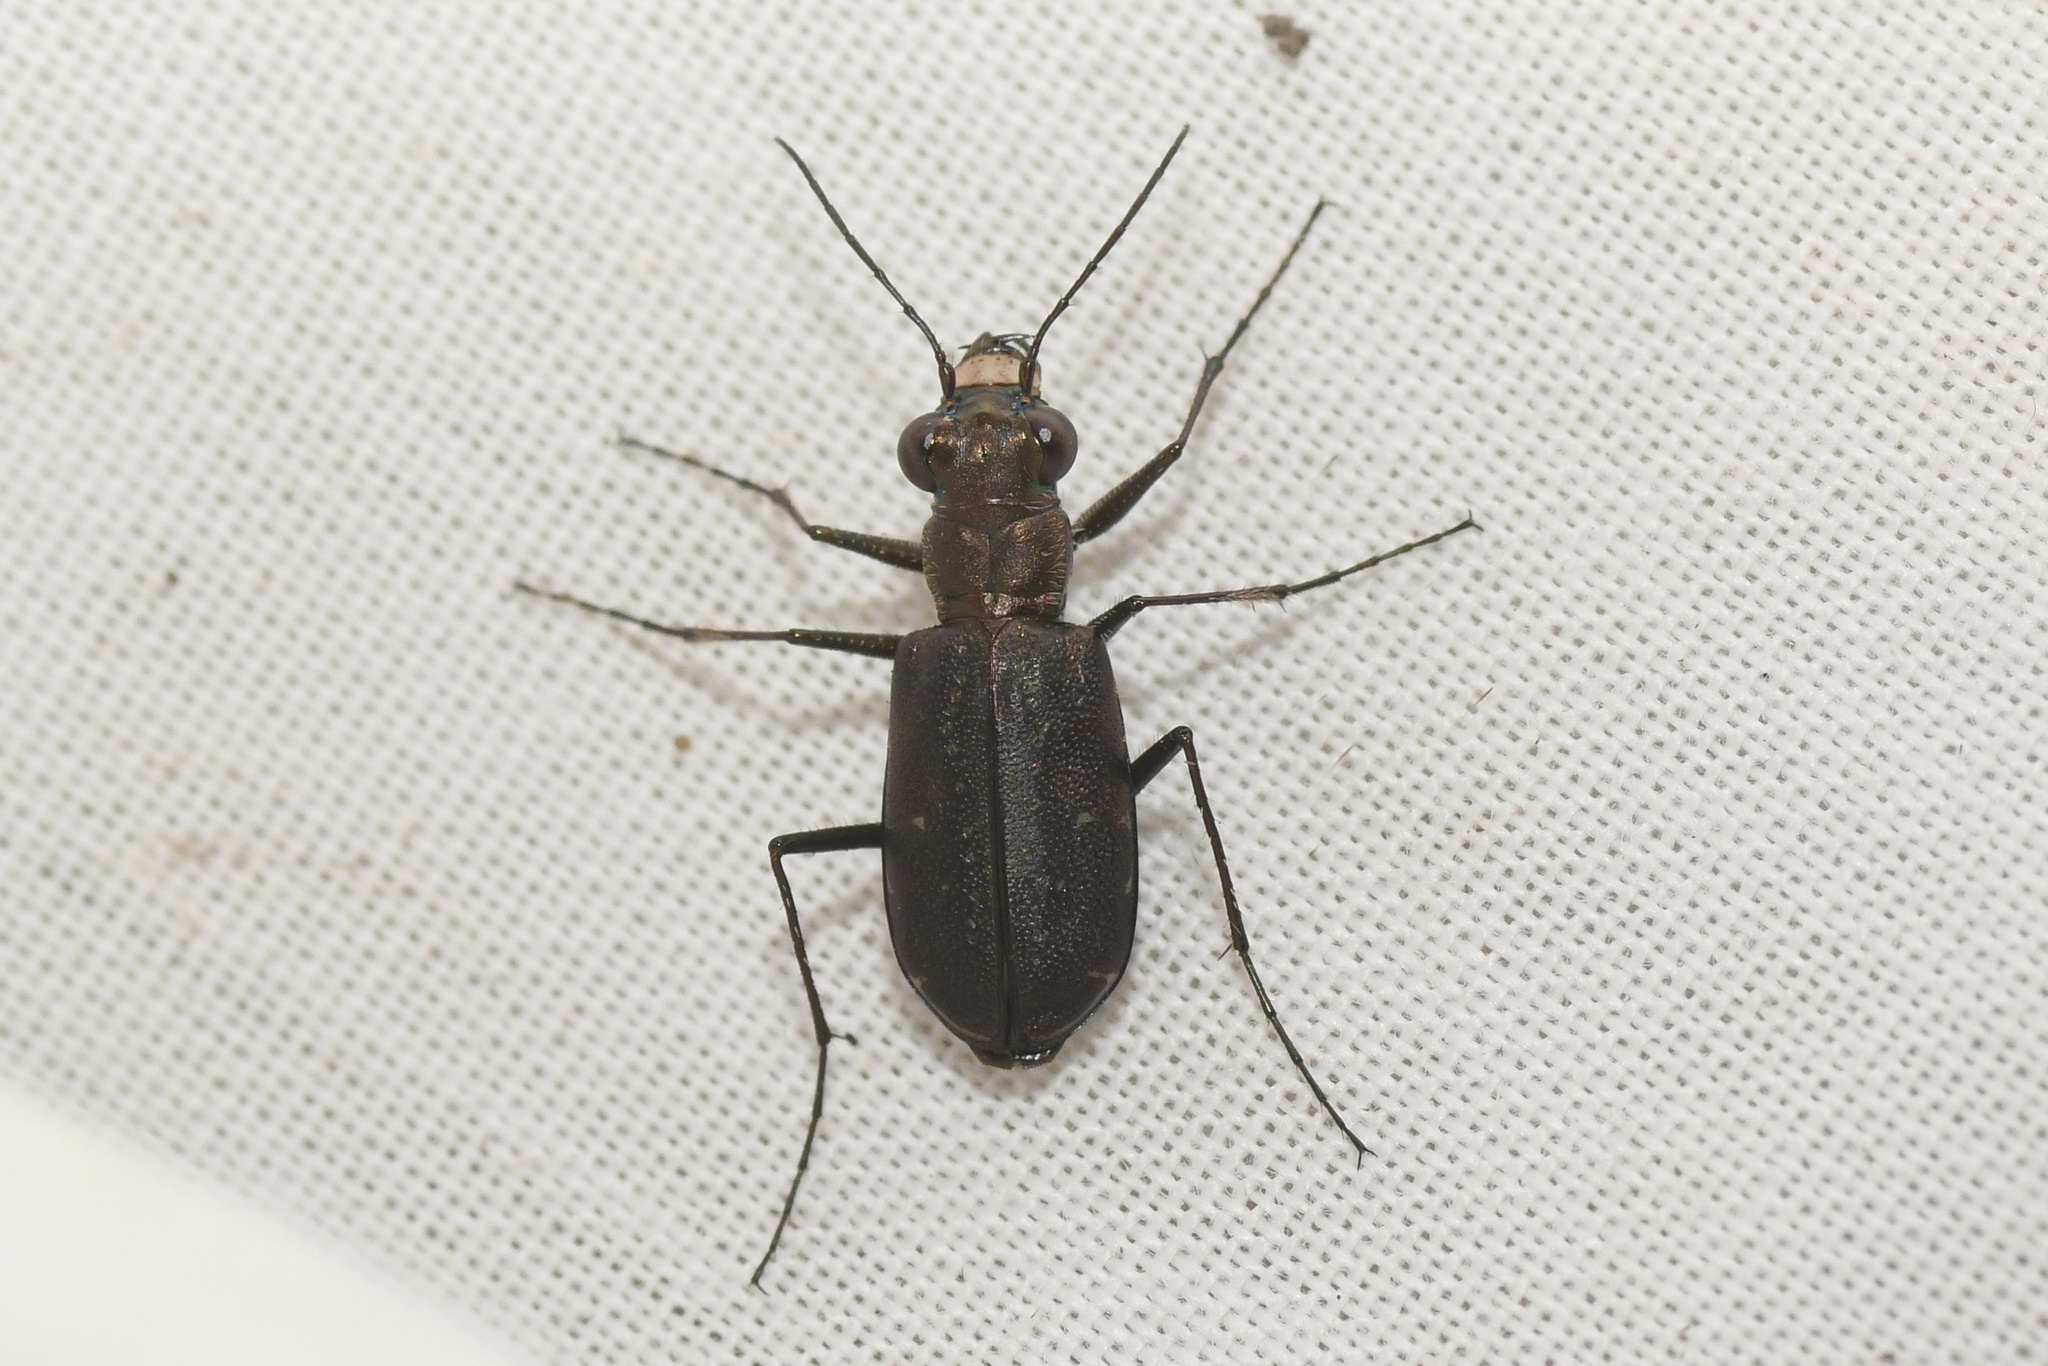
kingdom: Animalia
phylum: Arthropoda
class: Insecta
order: Coleoptera
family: Carabidae
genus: Cicindela
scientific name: Cicindela punctulata
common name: Punctured tiger beetle
